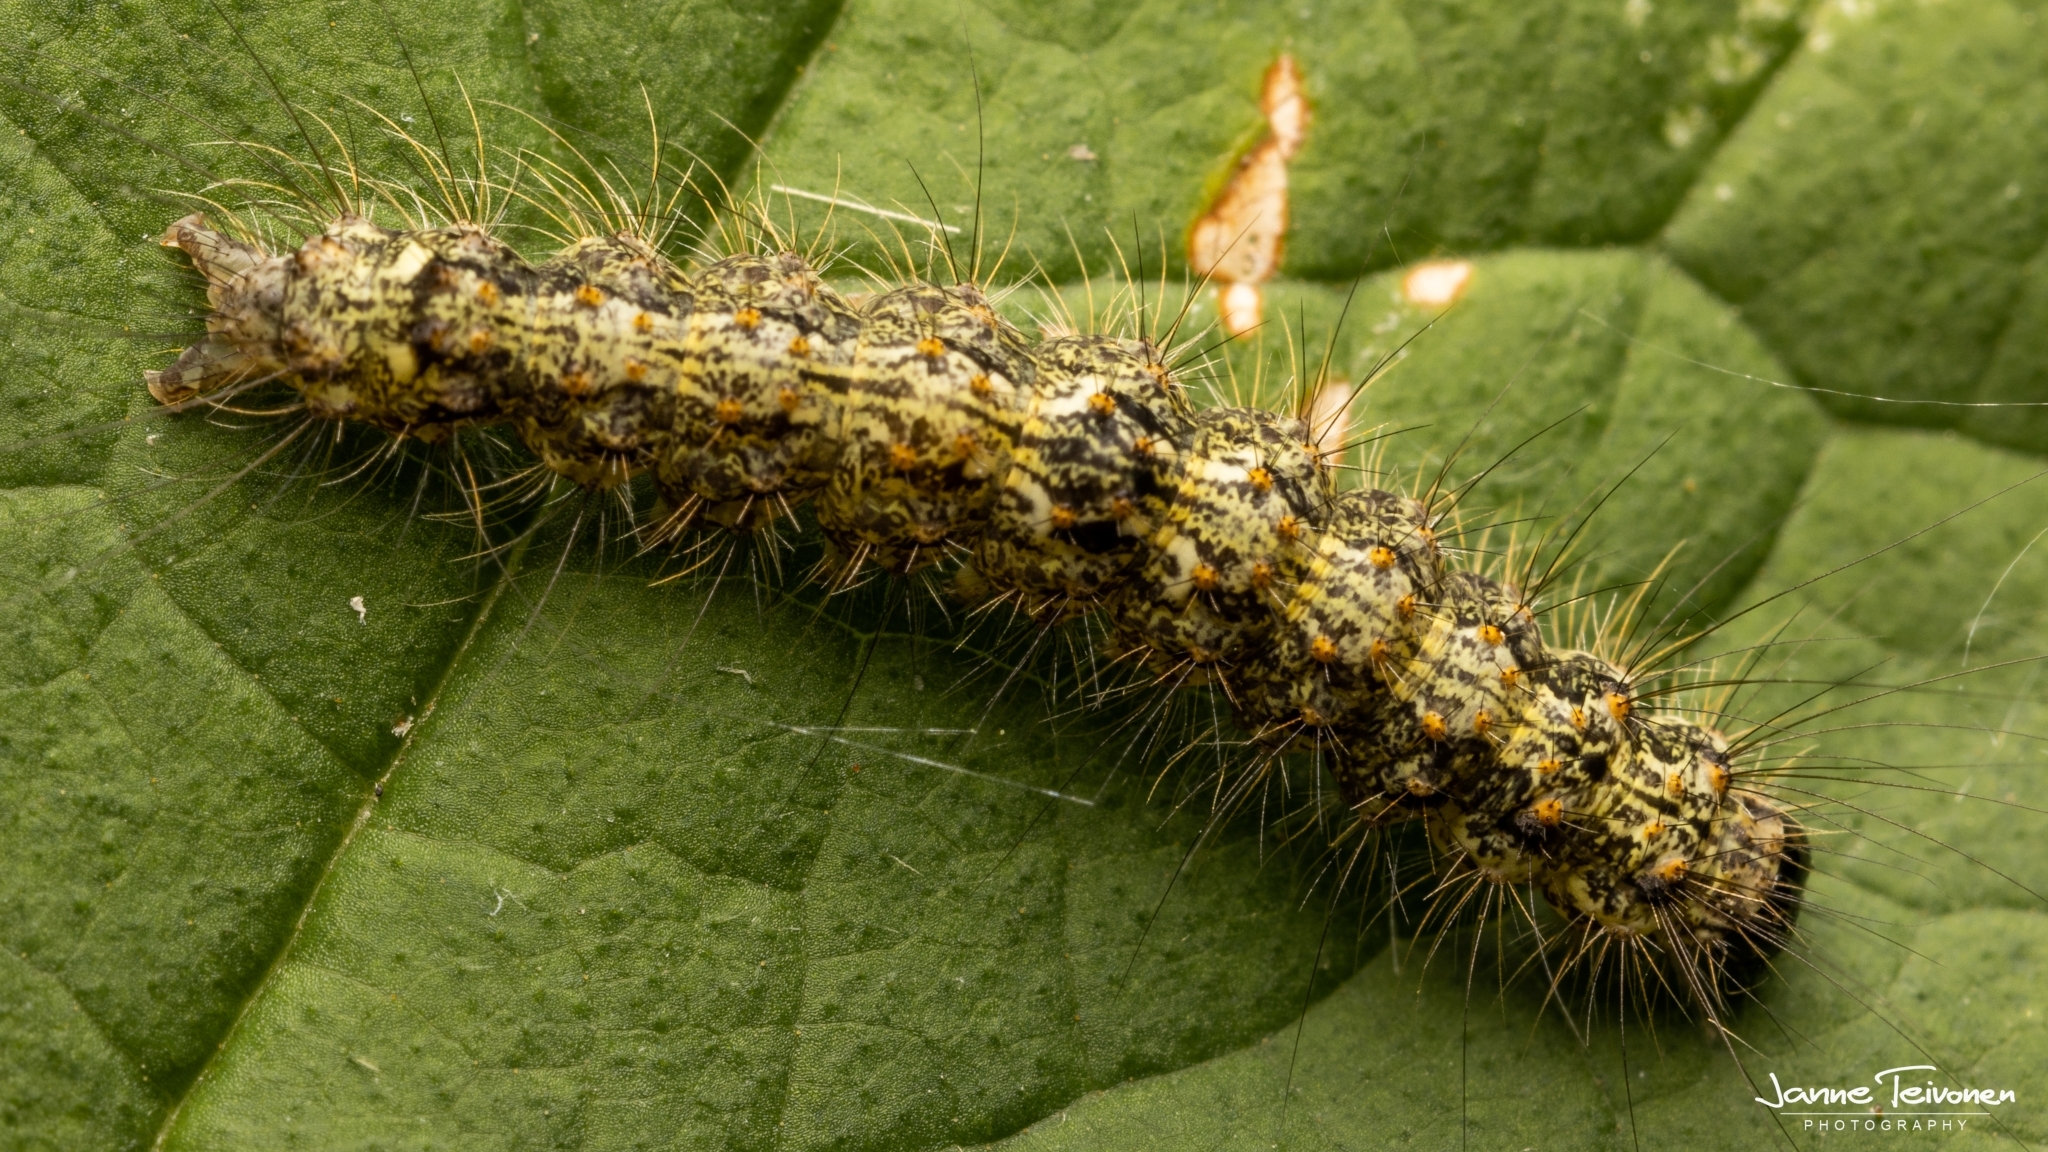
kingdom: Animalia
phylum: Arthropoda
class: Insecta
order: Lepidoptera
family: Erebidae
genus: Atolmis
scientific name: Atolmis rubricollis
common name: Red-necked footman
